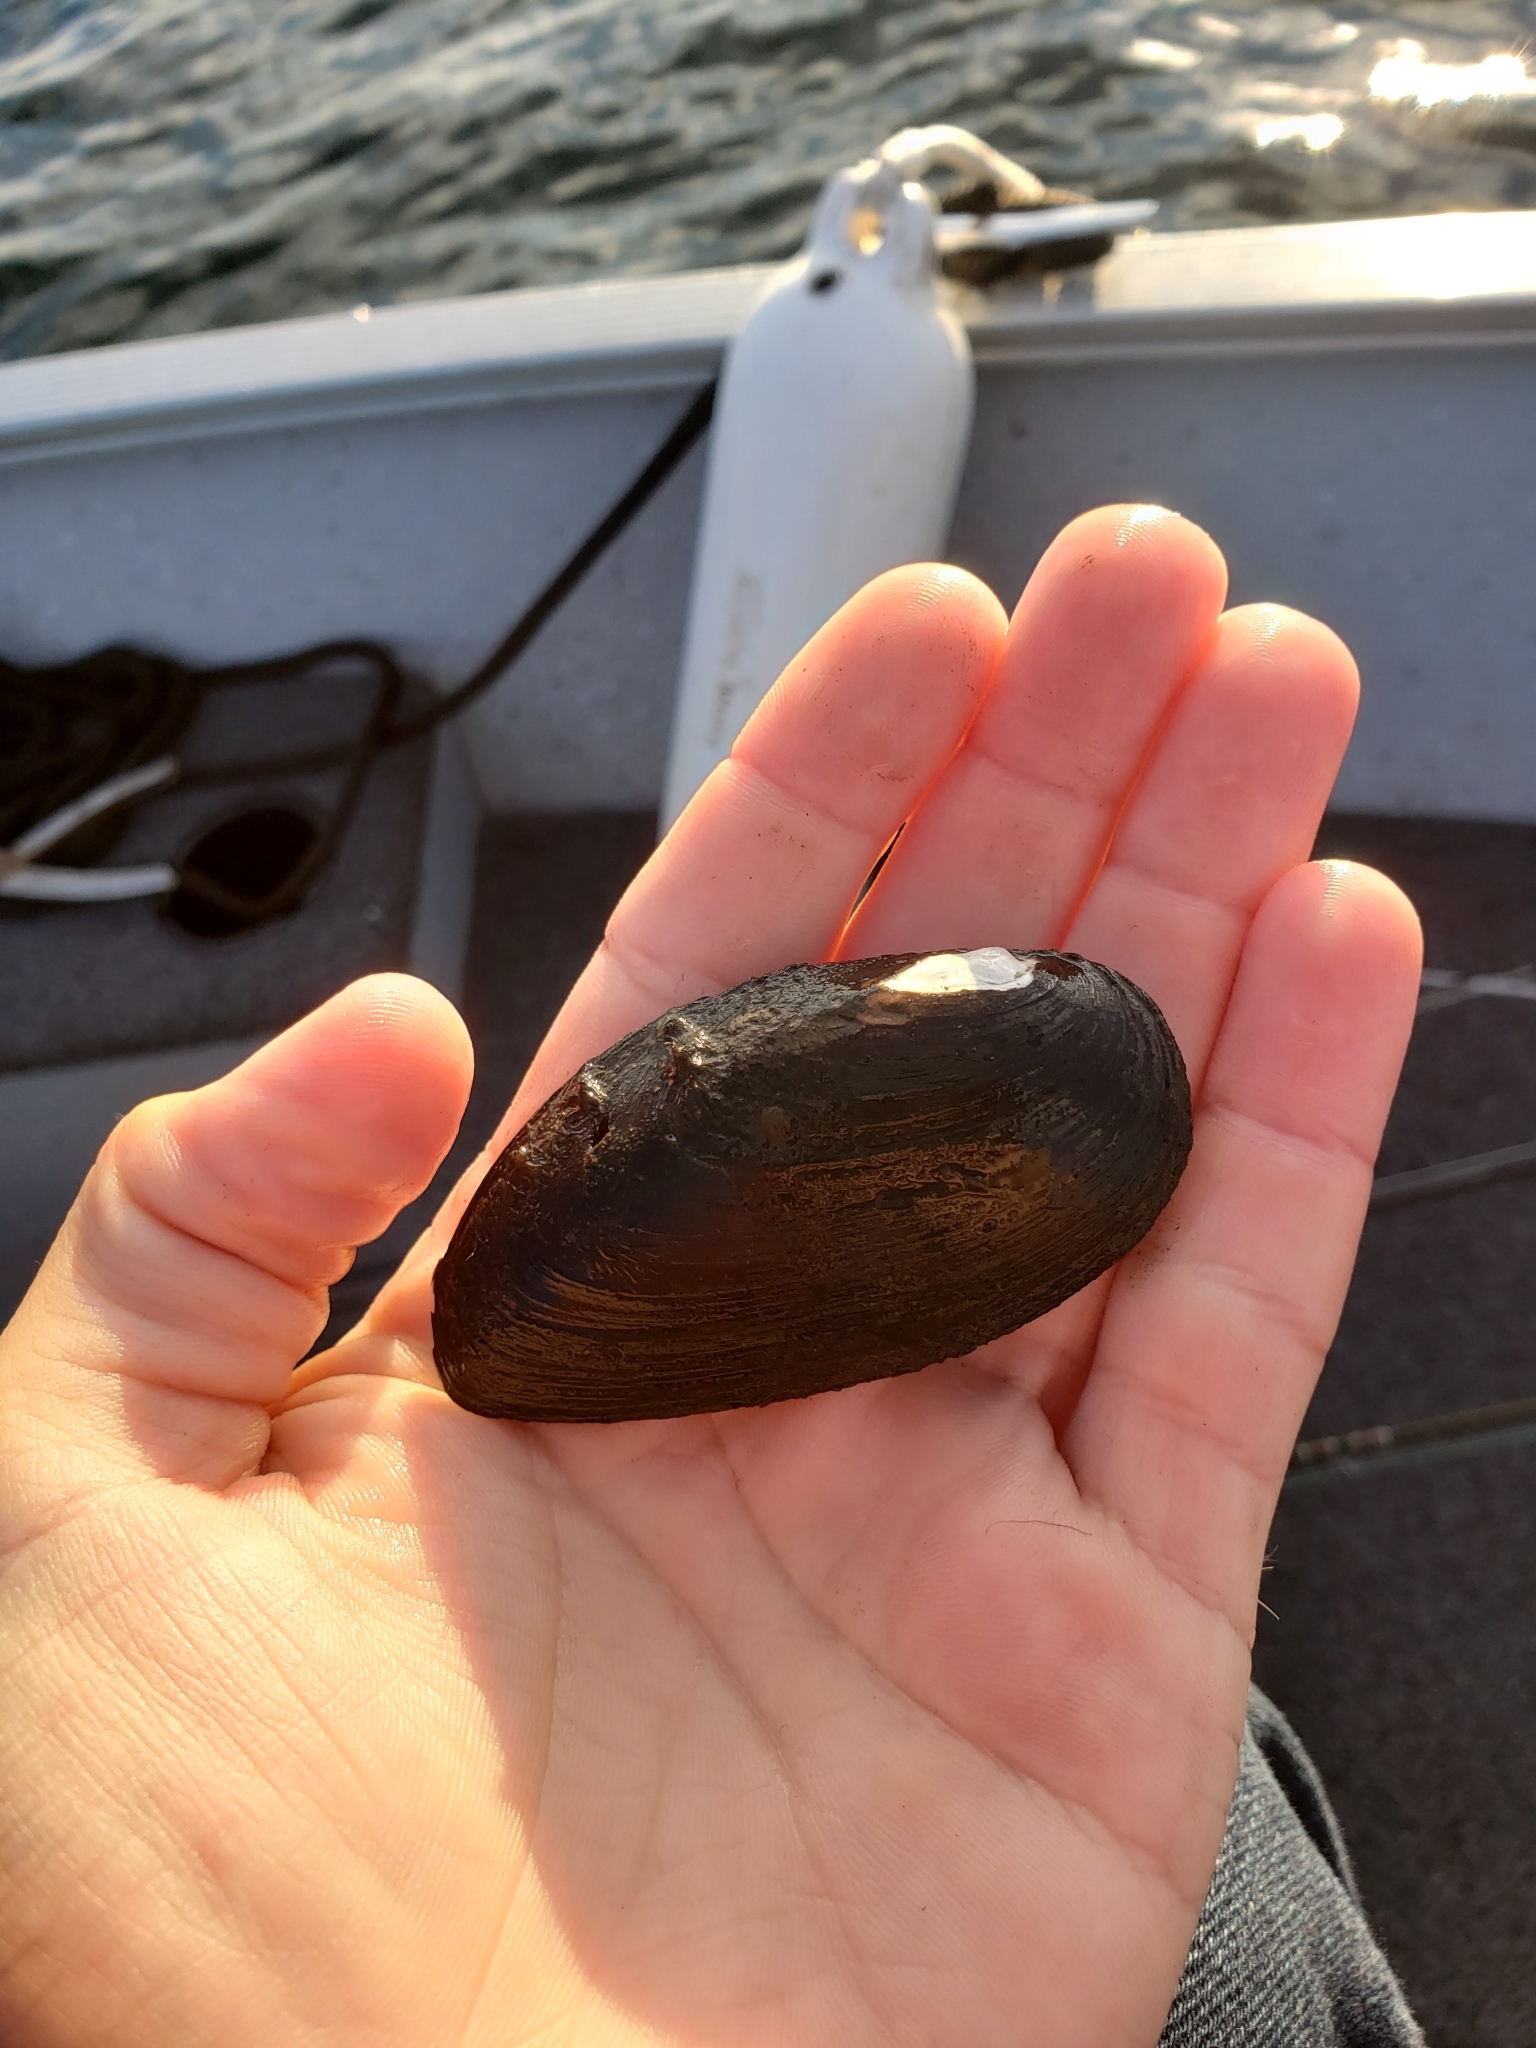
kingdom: Animalia
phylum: Mollusca
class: Bivalvia
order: Unionida
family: Unionidae
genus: Elliptio
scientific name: Elliptio complanata
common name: Eastern elliptio
